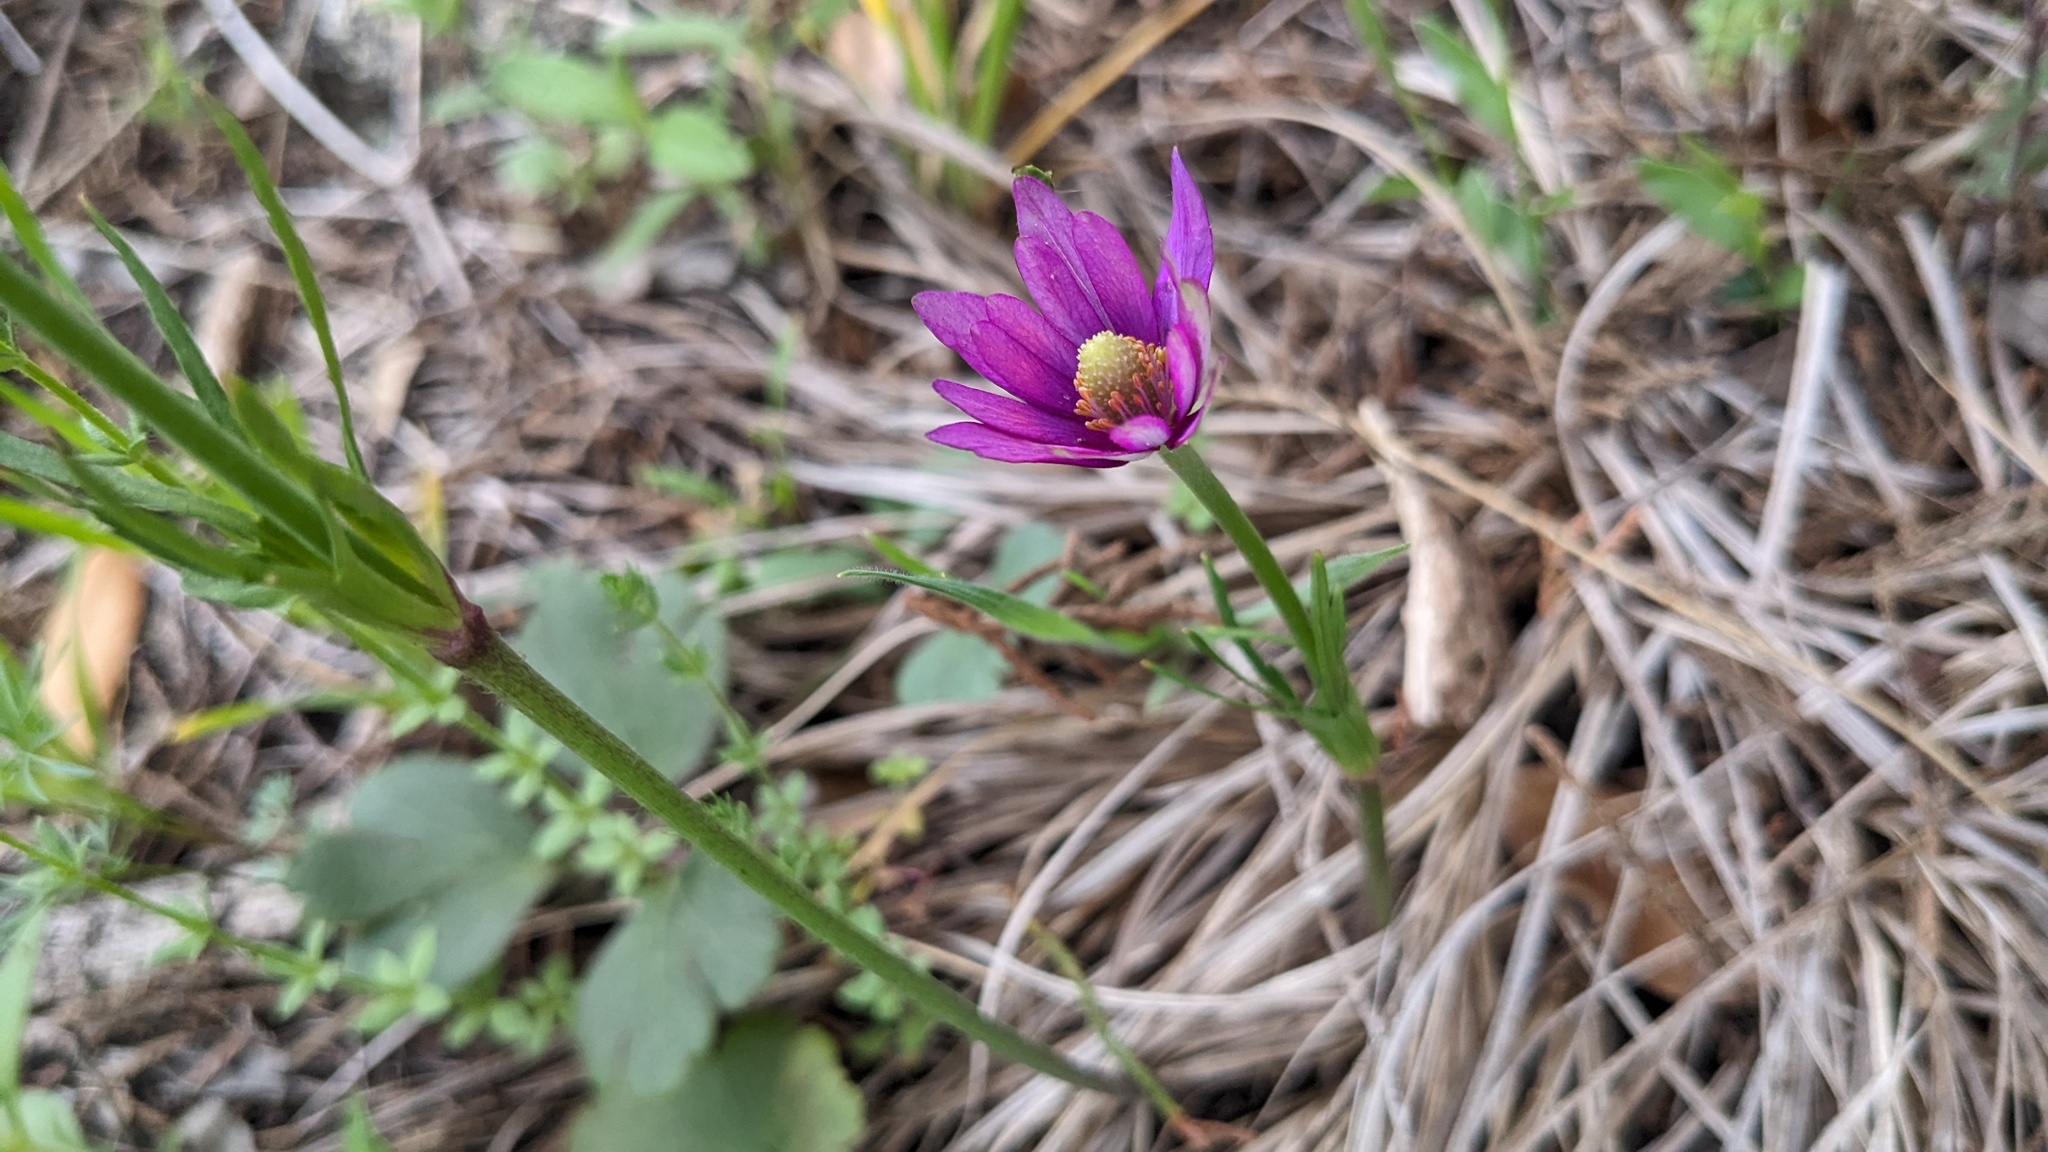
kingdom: Plantae
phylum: Tracheophyta
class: Magnoliopsida
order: Ranunculales
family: Ranunculaceae
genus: Anemone
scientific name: Anemone berlandieri
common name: Ten-petal anemone
